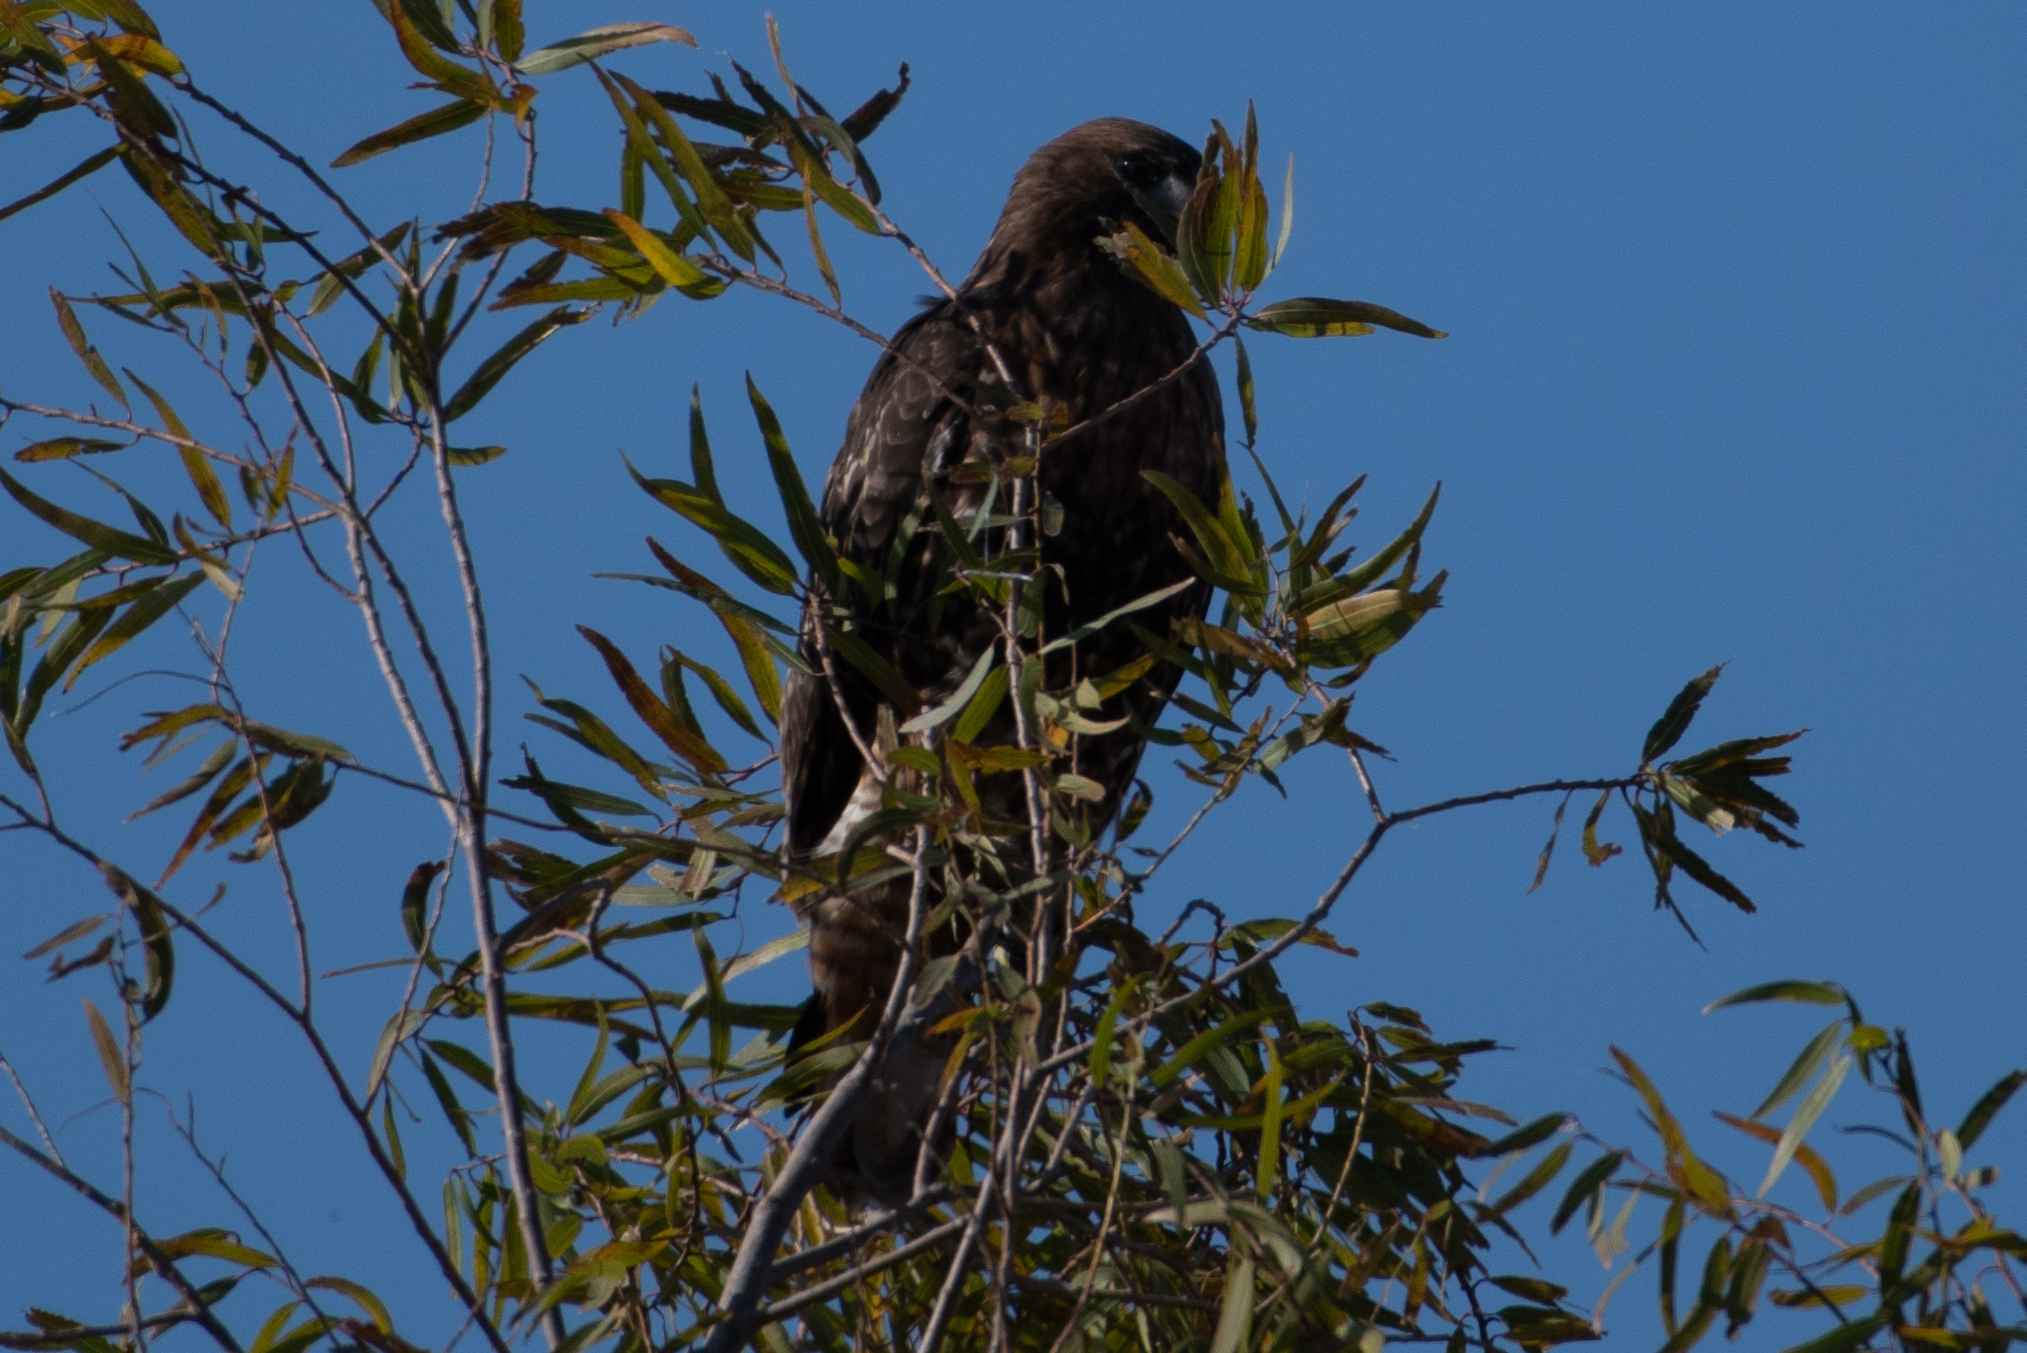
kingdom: Animalia
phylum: Chordata
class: Aves
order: Accipitriformes
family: Accipitridae
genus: Buteo
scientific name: Buteo jamaicensis
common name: Red-tailed hawk
